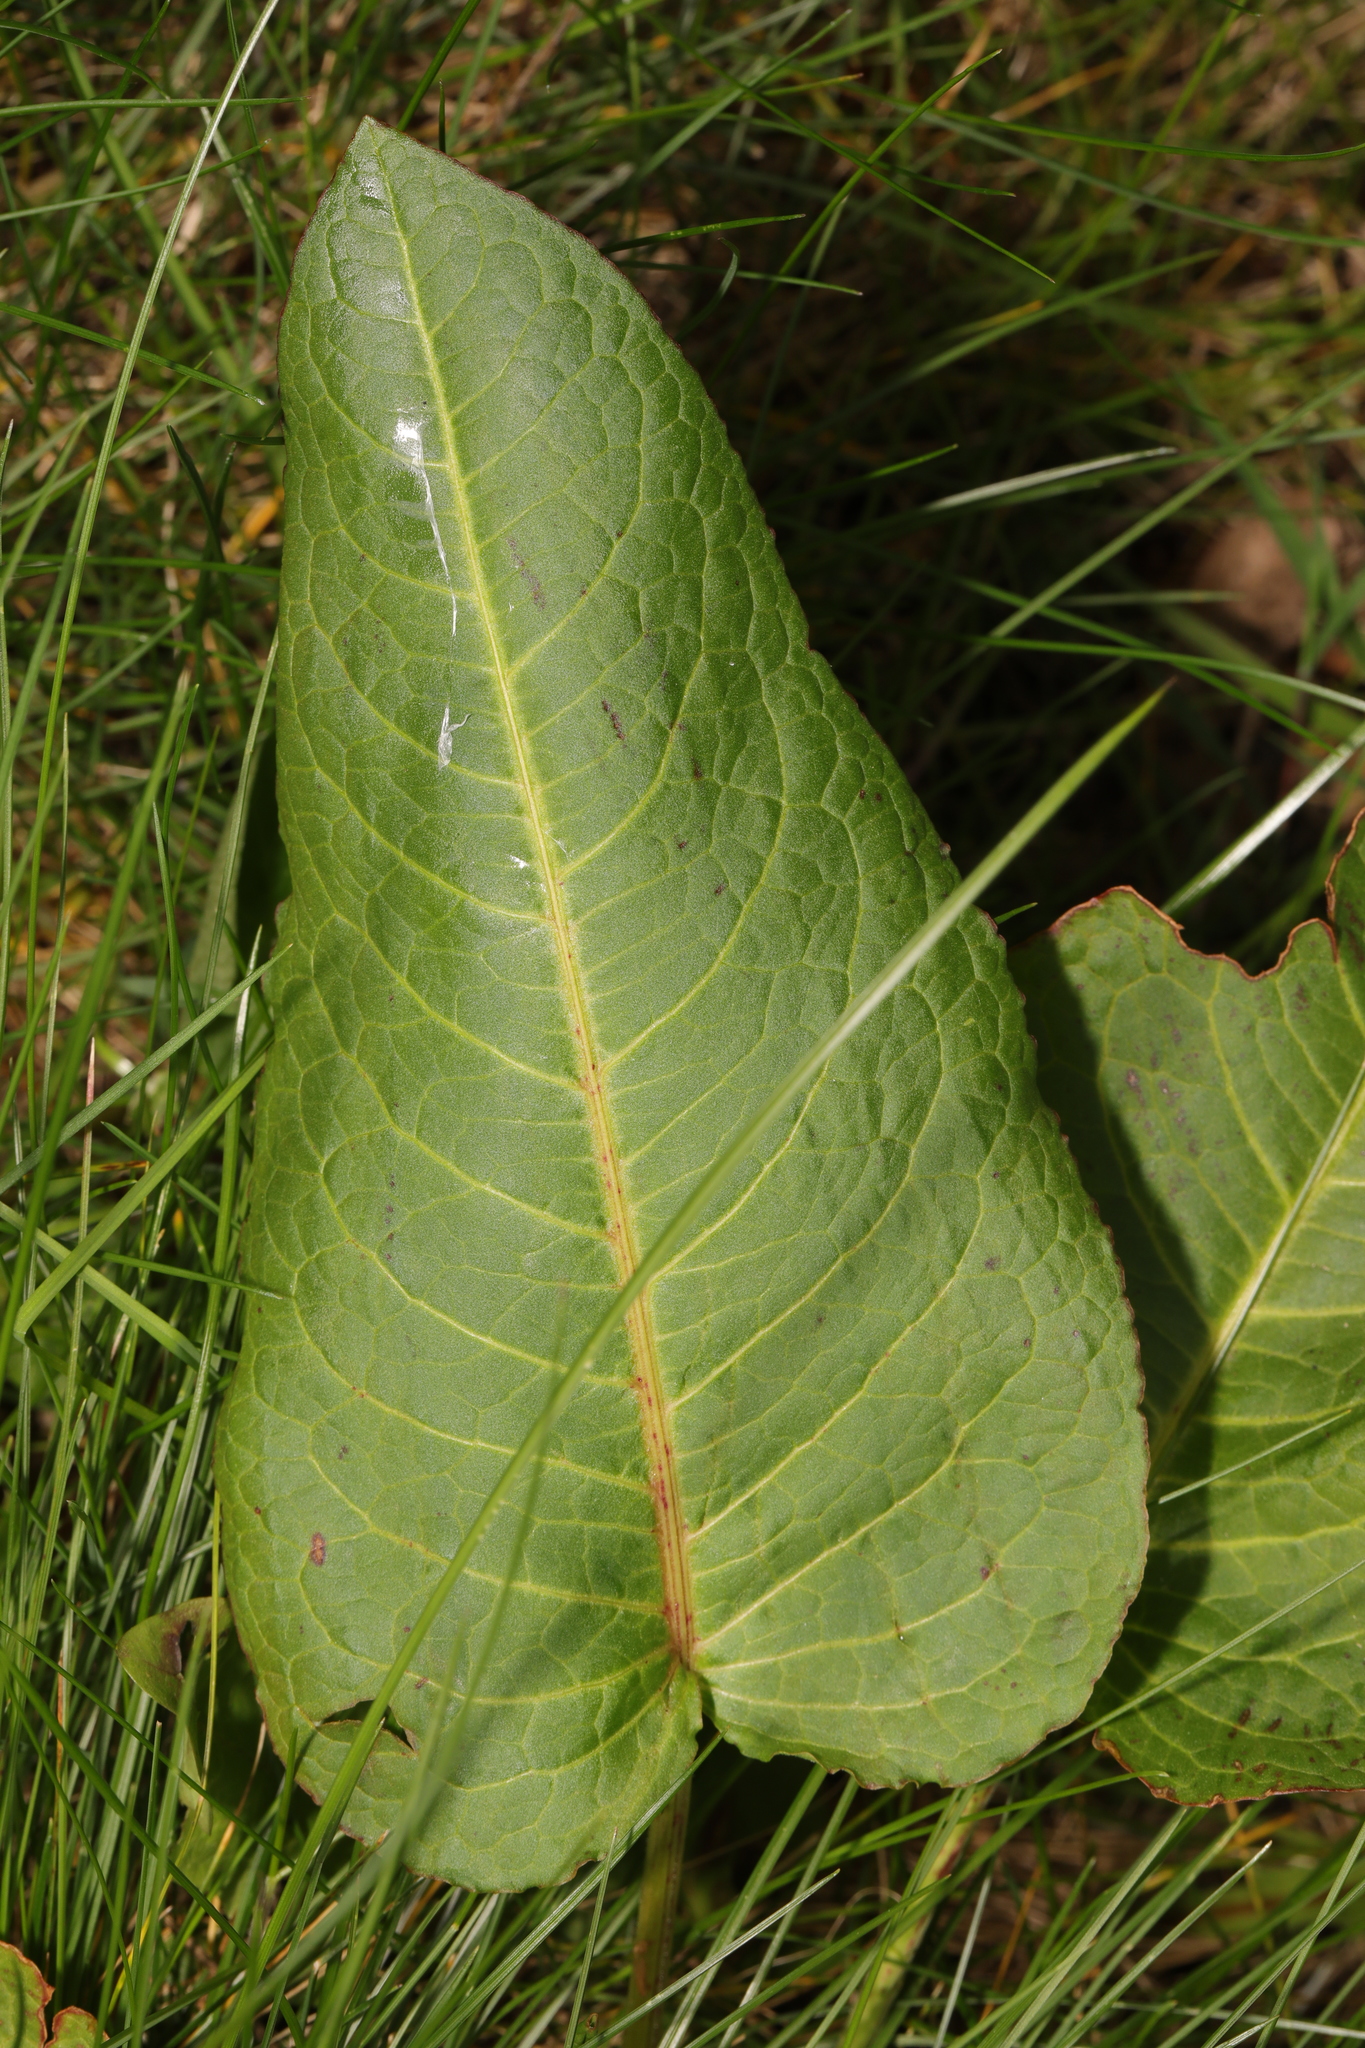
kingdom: Plantae
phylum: Tracheophyta
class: Magnoliopsida
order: Caryophyllales
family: Polygonaceae
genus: Rumex
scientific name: Rumex obtusifolius
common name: Bitter dock
